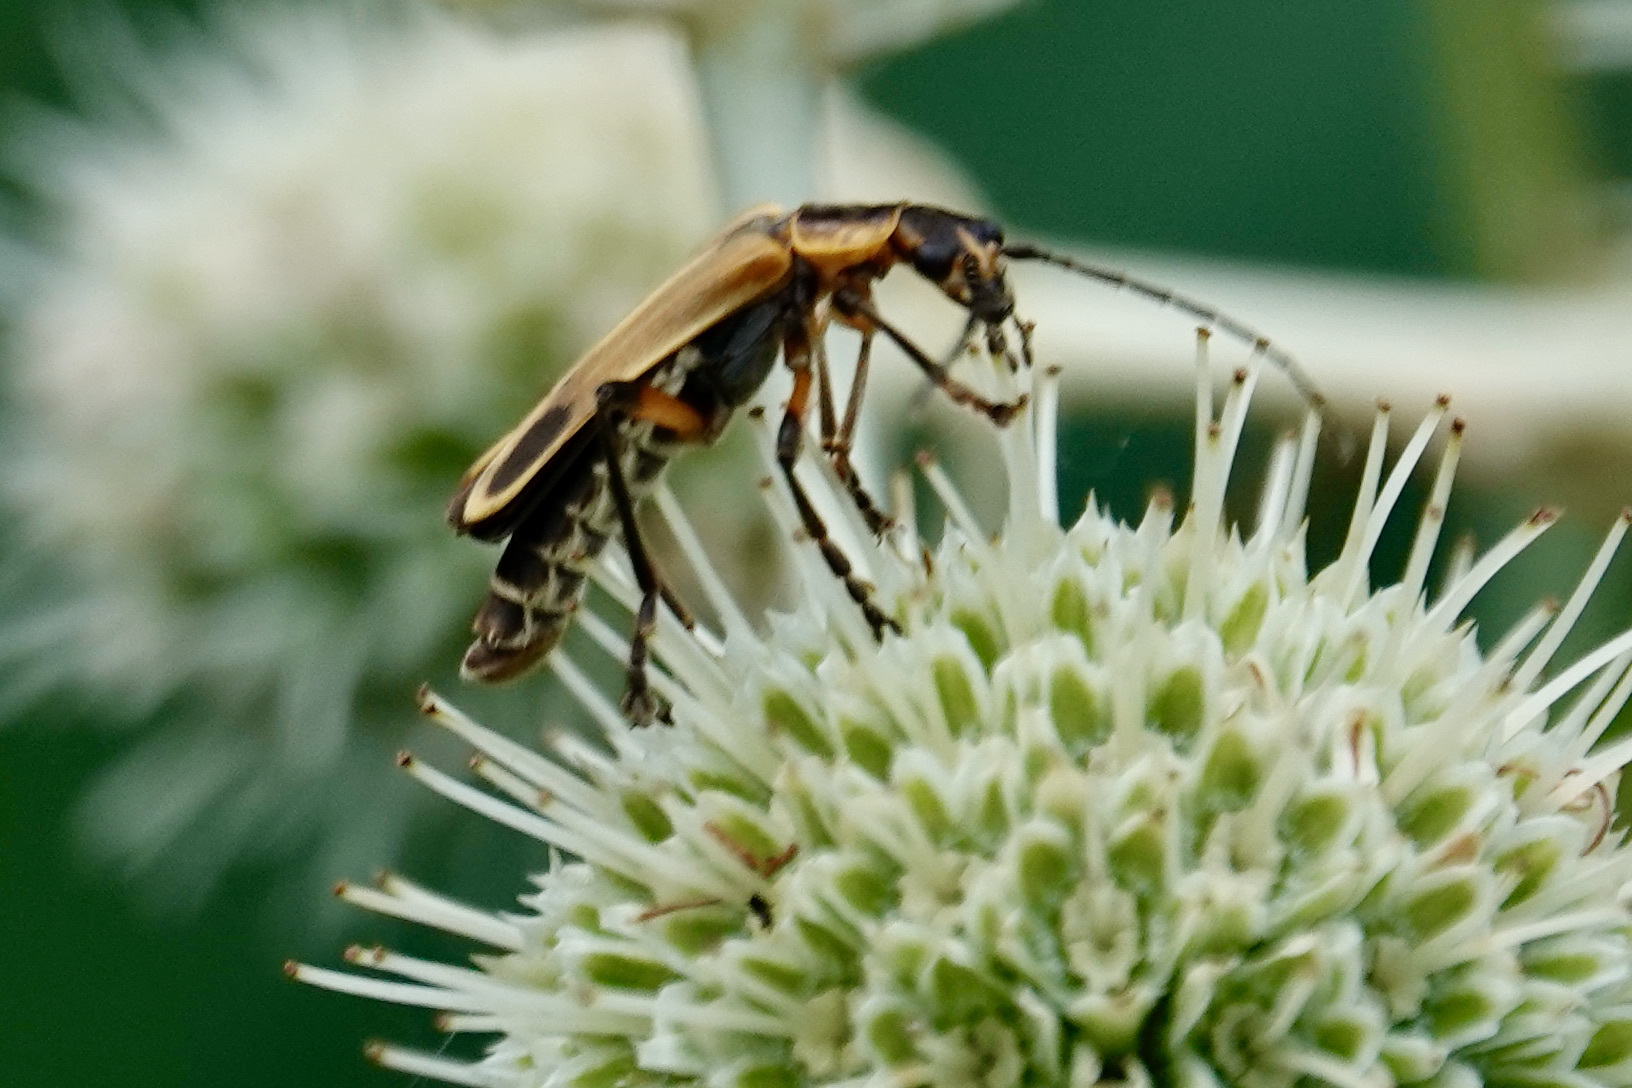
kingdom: Animalia
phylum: Arthropoda
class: Insecta
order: Coleoptera
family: Cantharidae
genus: Chauliognathus
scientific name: Chauliognathus marginatus
